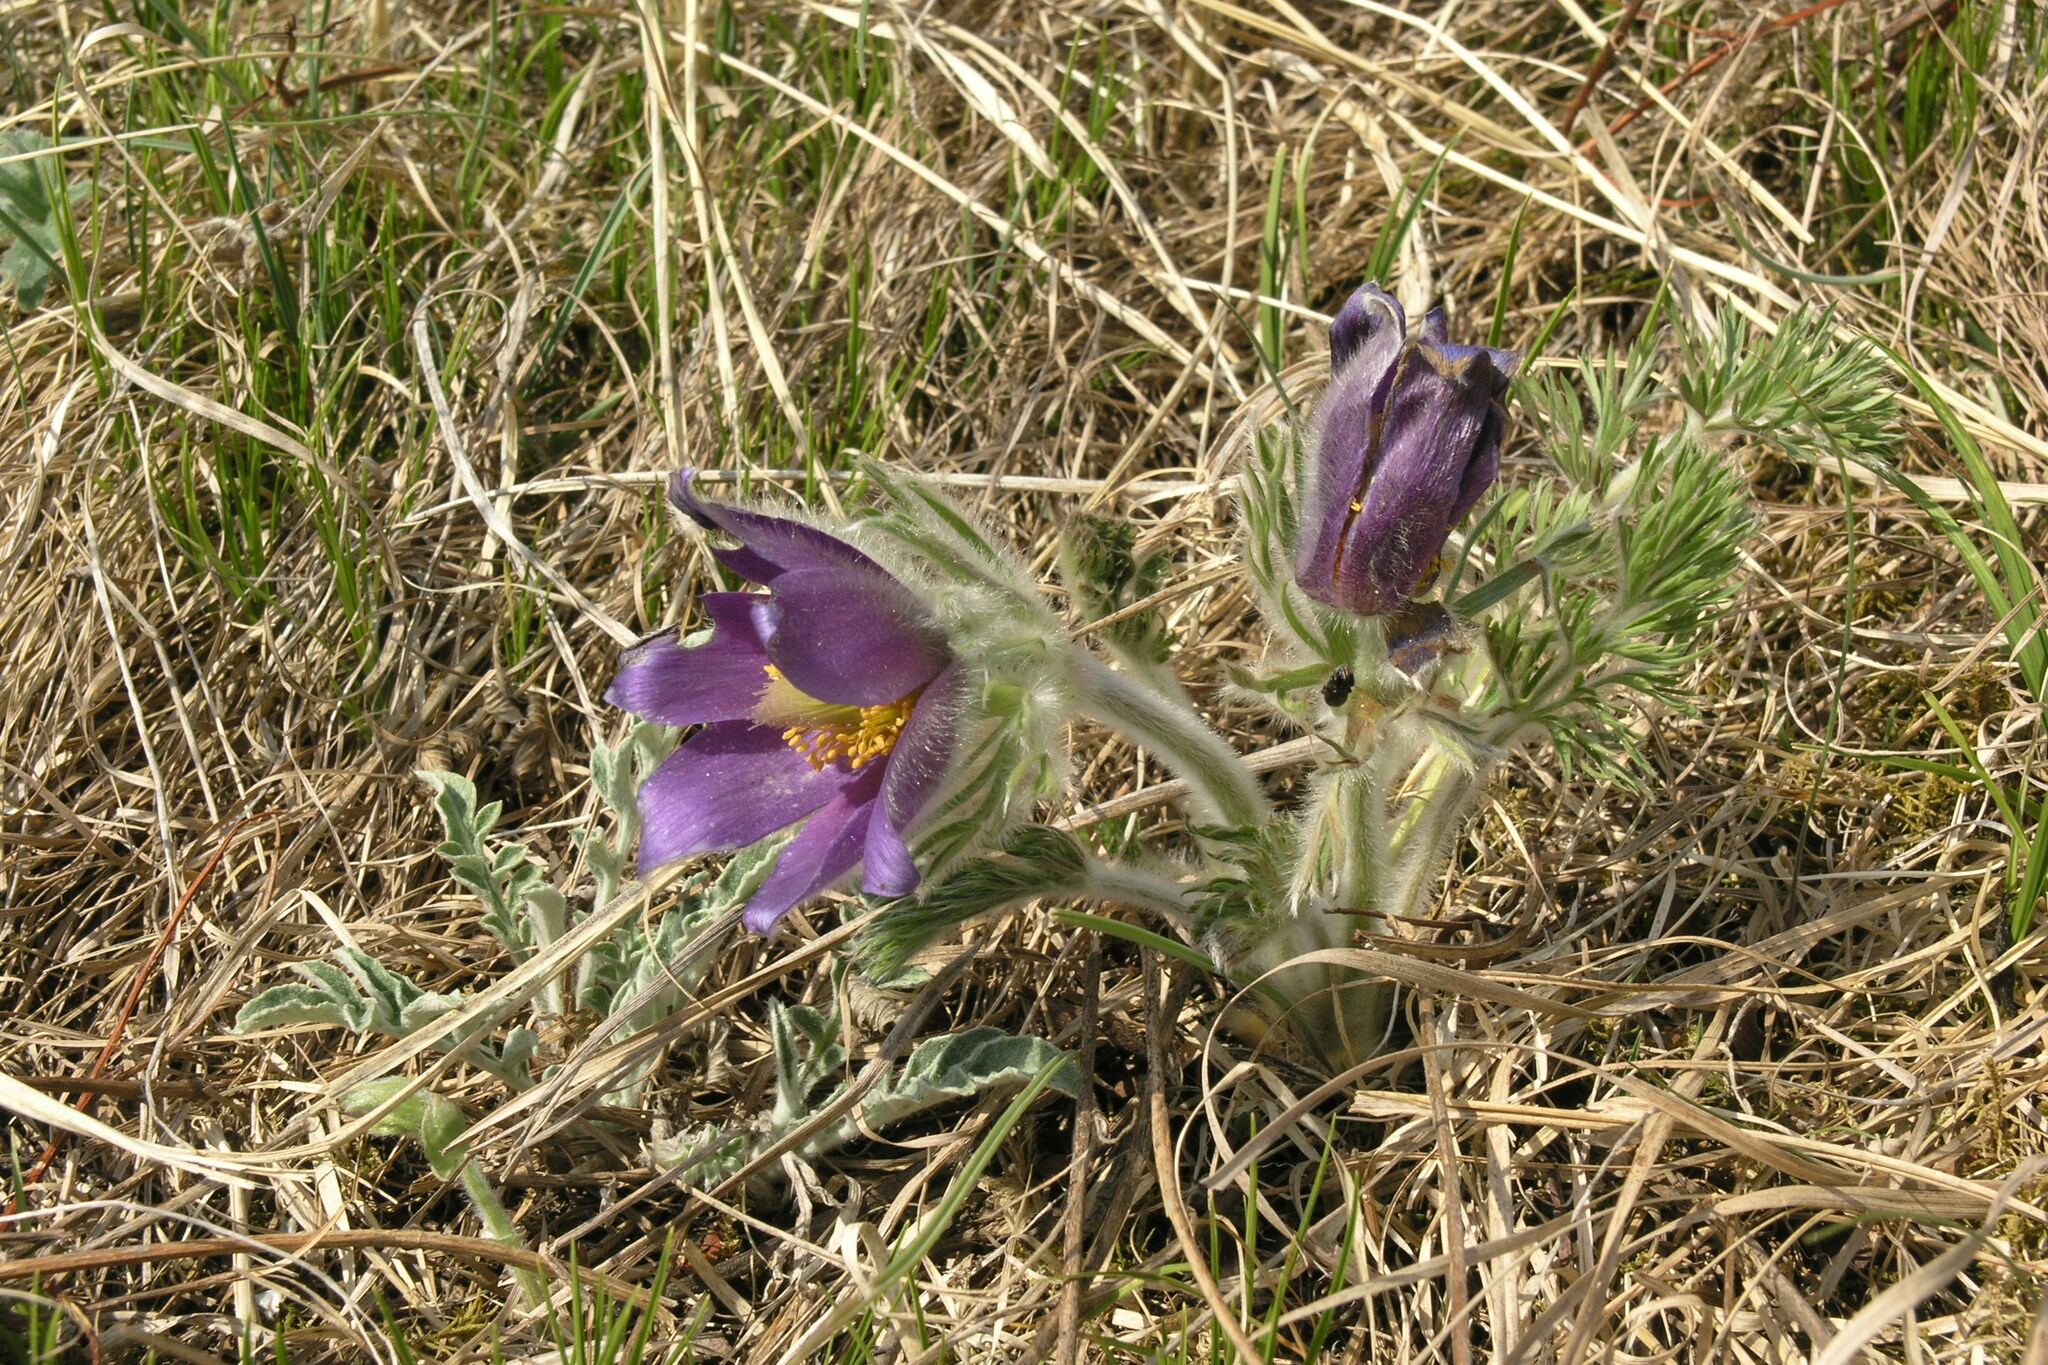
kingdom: Plantae
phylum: Tracheophyta
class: Magnoliopsida
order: Ranunculales
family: Ranunculaceae
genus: Pulsatilla
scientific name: Pulsatilla turczaninovii
